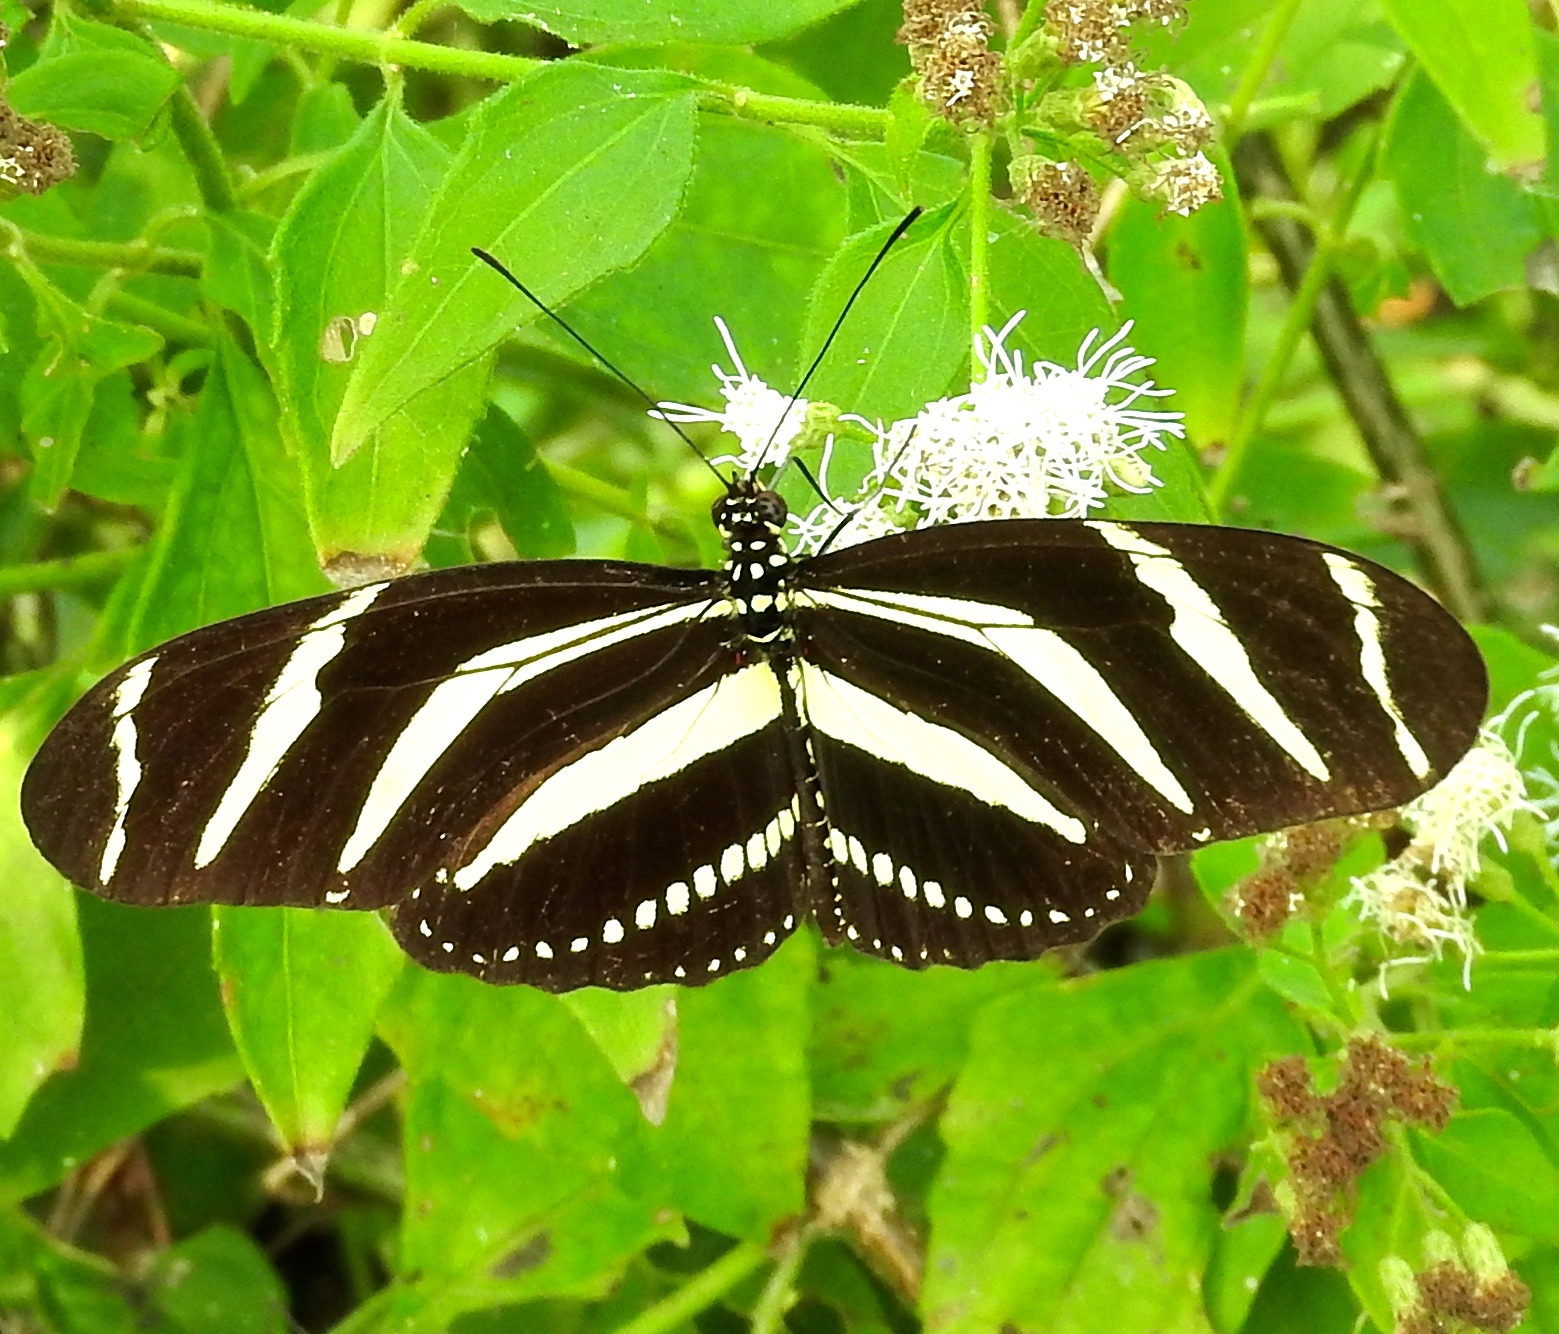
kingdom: Animalia
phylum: Arthropoda
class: Insecta
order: Lepidoptera
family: Nymphalidae
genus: Heliconius
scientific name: Heliconius charithonia
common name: Zebra long wing
